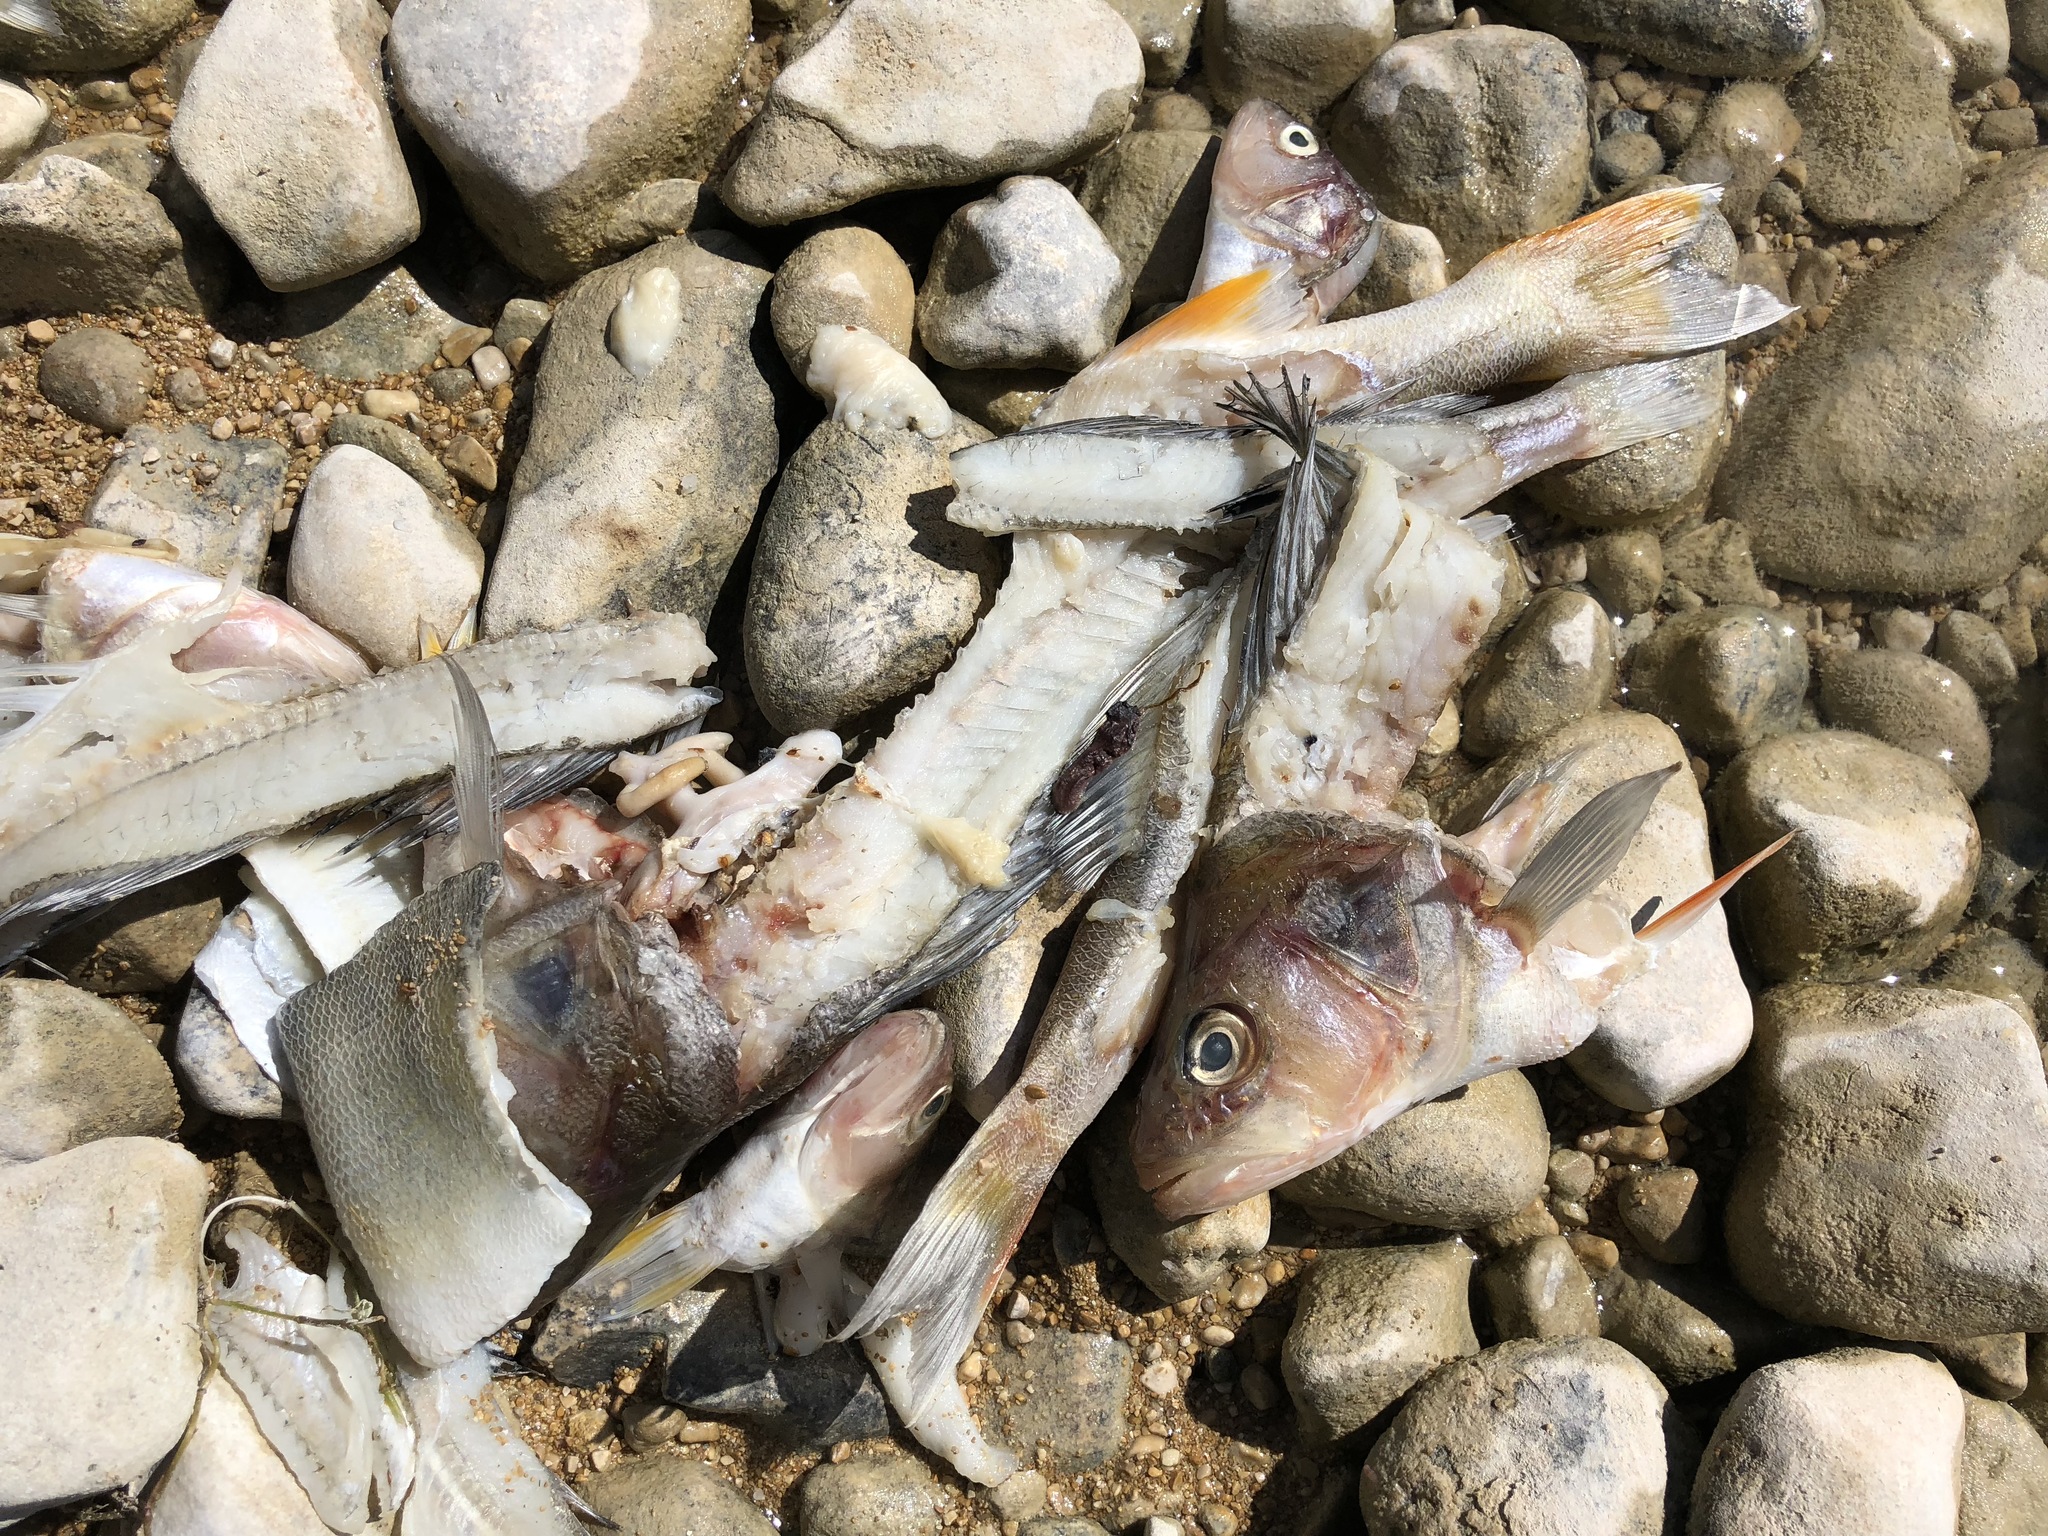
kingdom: Animalia
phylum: Chordata
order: Perciformes
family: Percidae
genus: Perca
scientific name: Perca fluviatilis
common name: Perch
